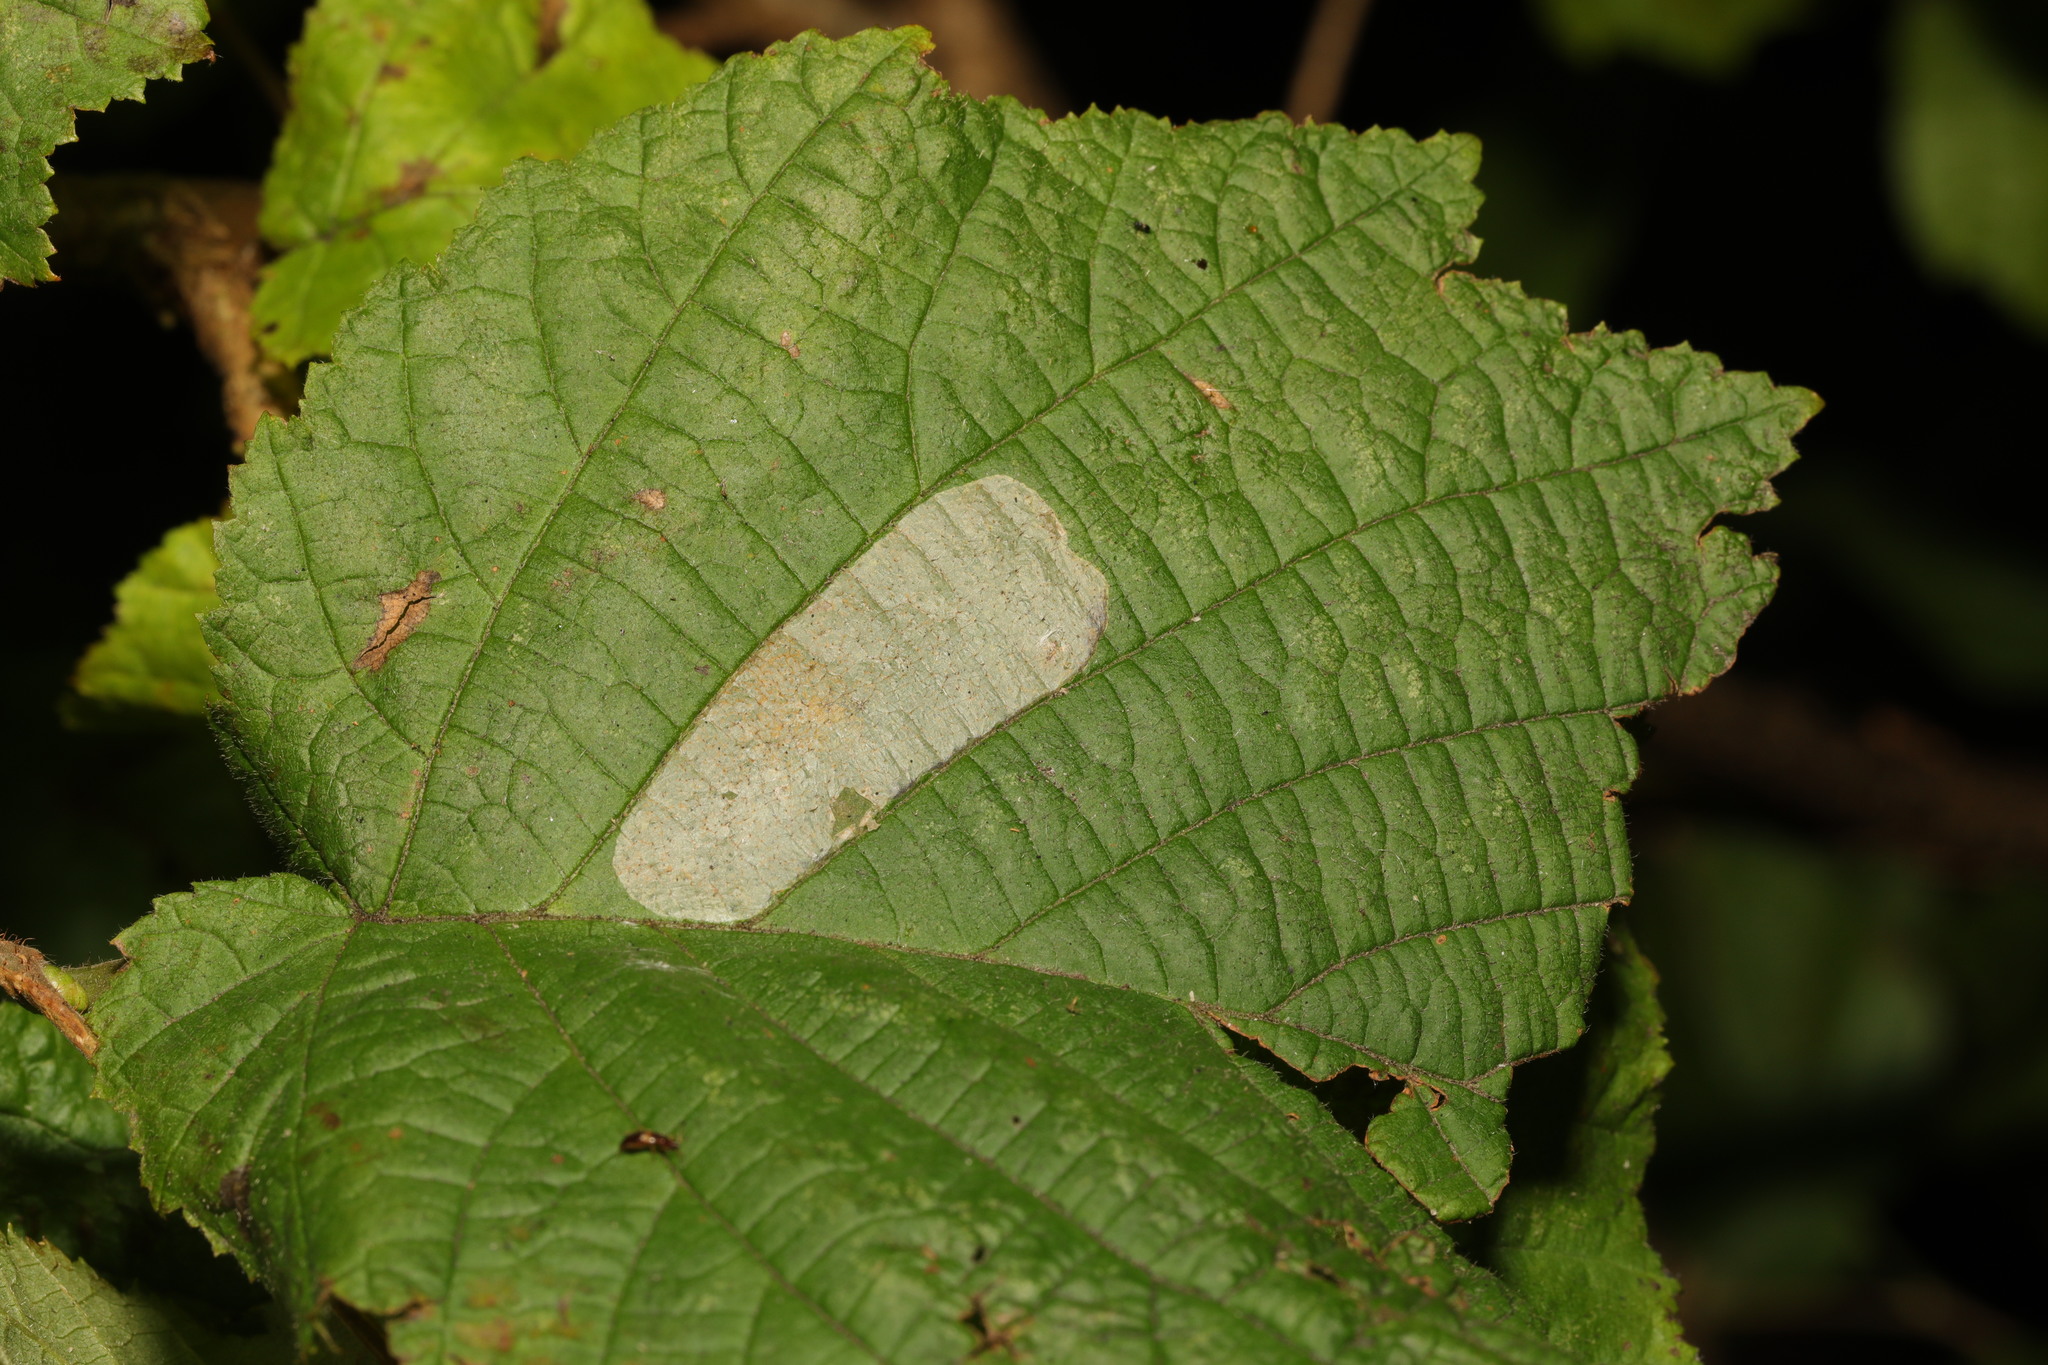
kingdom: Animalia
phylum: Arthropoda
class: Insecta
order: Lepidoptera
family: Gracillariidae
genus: Phyllonorycter
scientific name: Phyllonorycter coryli
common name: Nut-leaf blister moth
